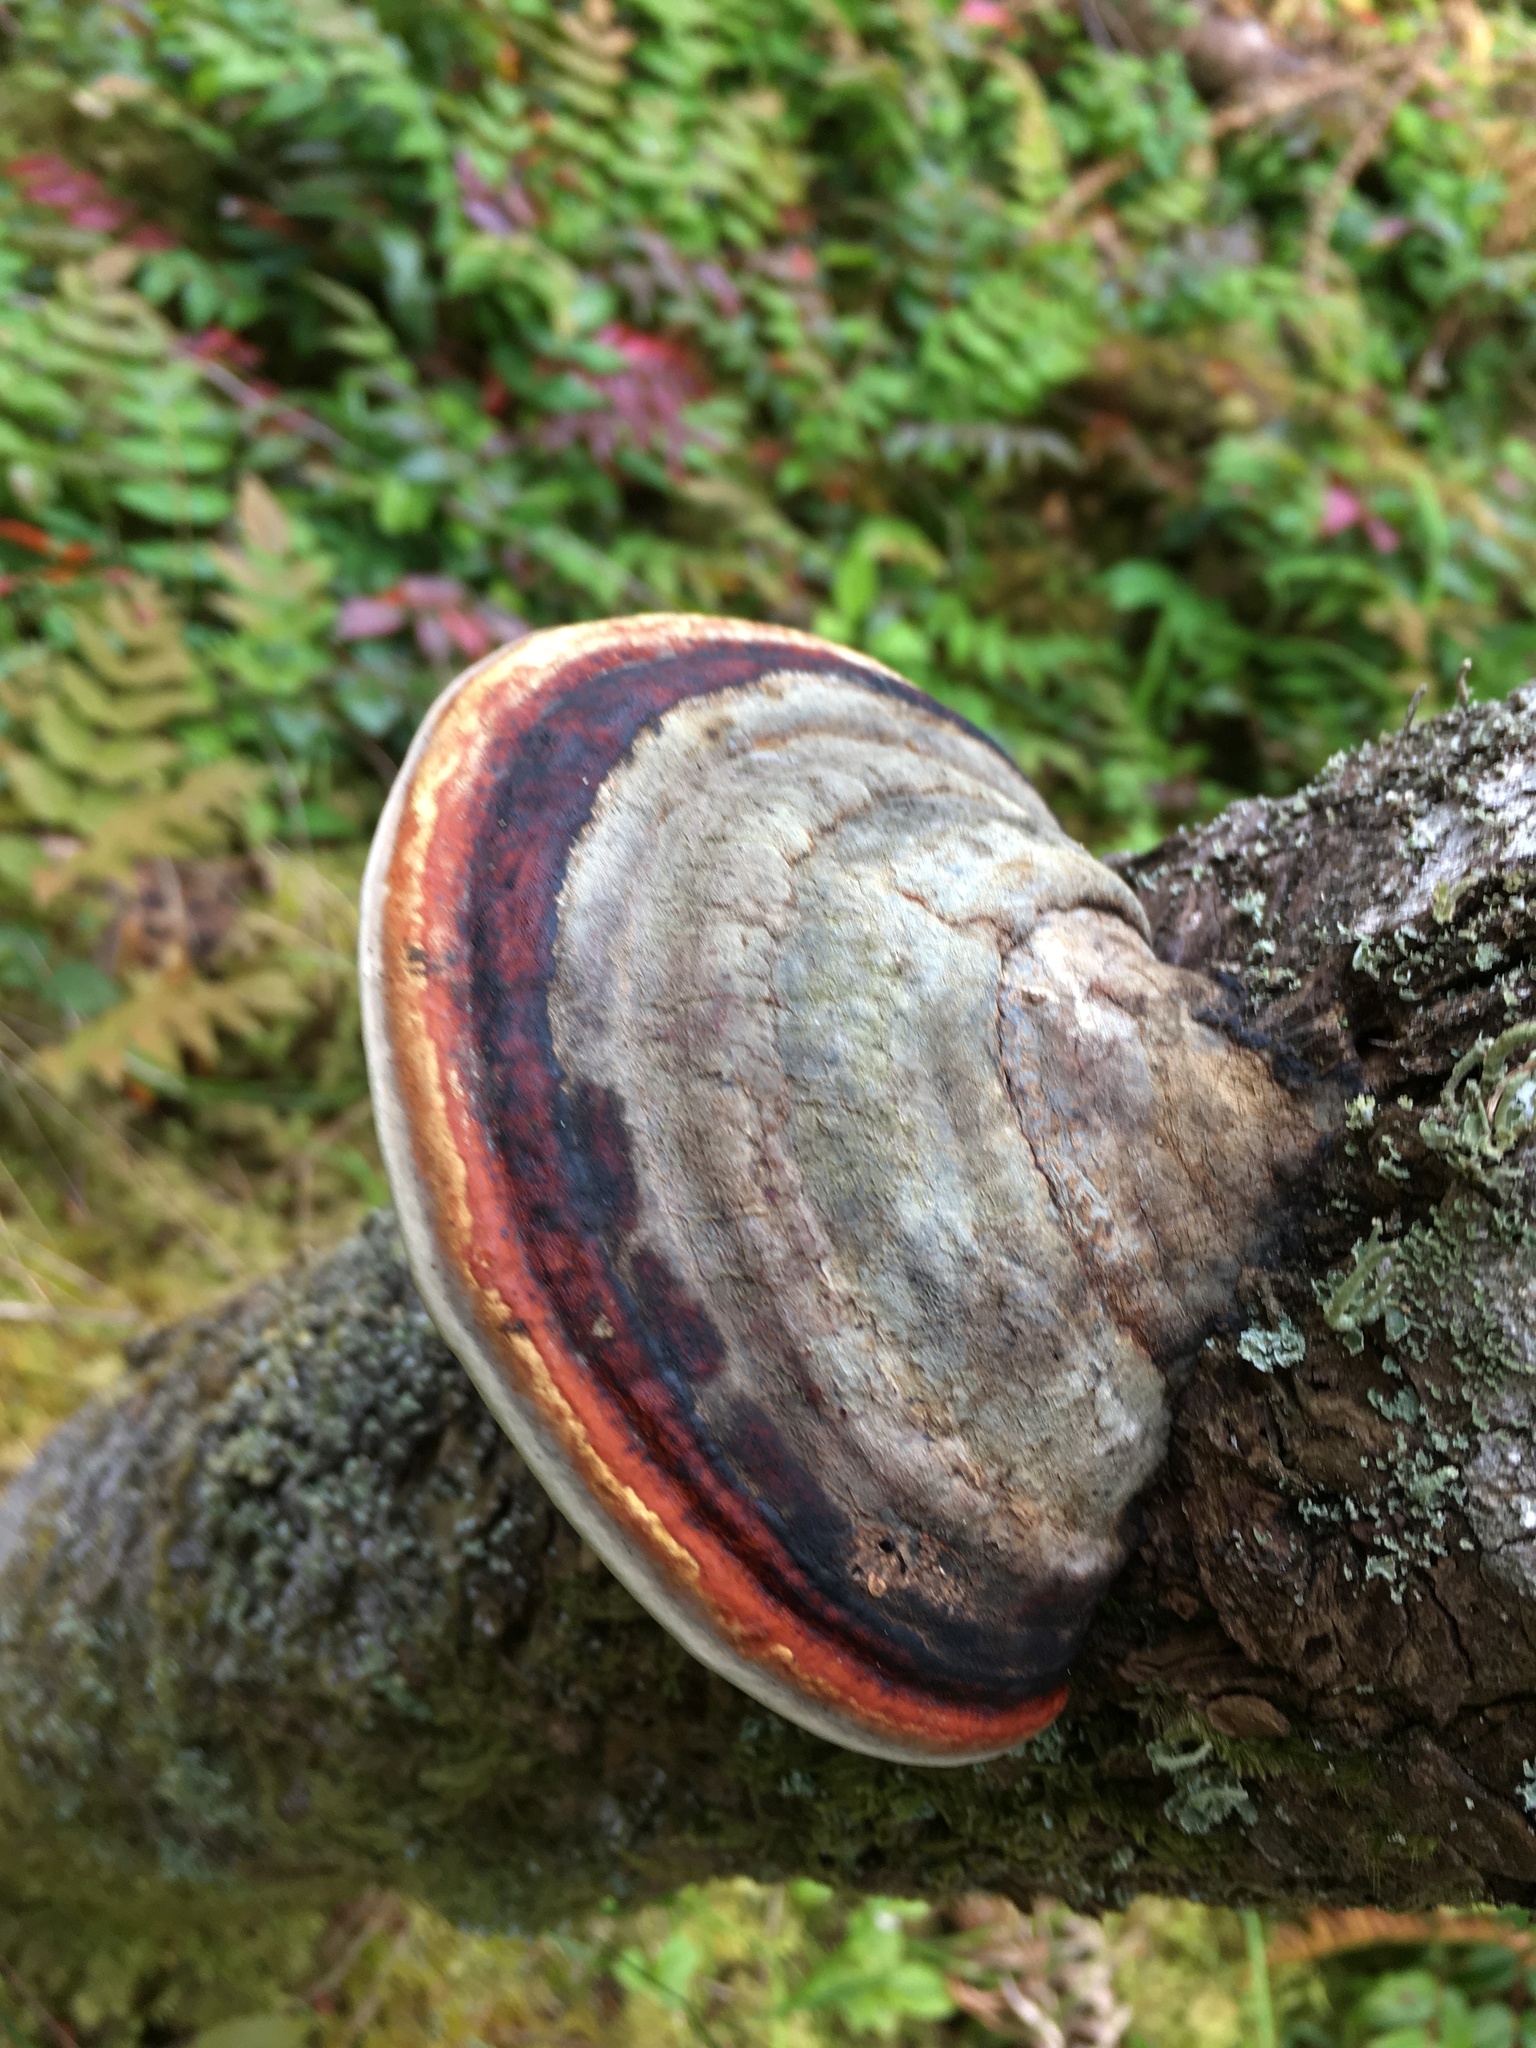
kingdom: Fungi
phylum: Basidiomycota
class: Agaricomycetes
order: Polyporales
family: Fomitopsidaceae
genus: Fomitopsis
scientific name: Fomitopsis mounceae
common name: Northern red belt
